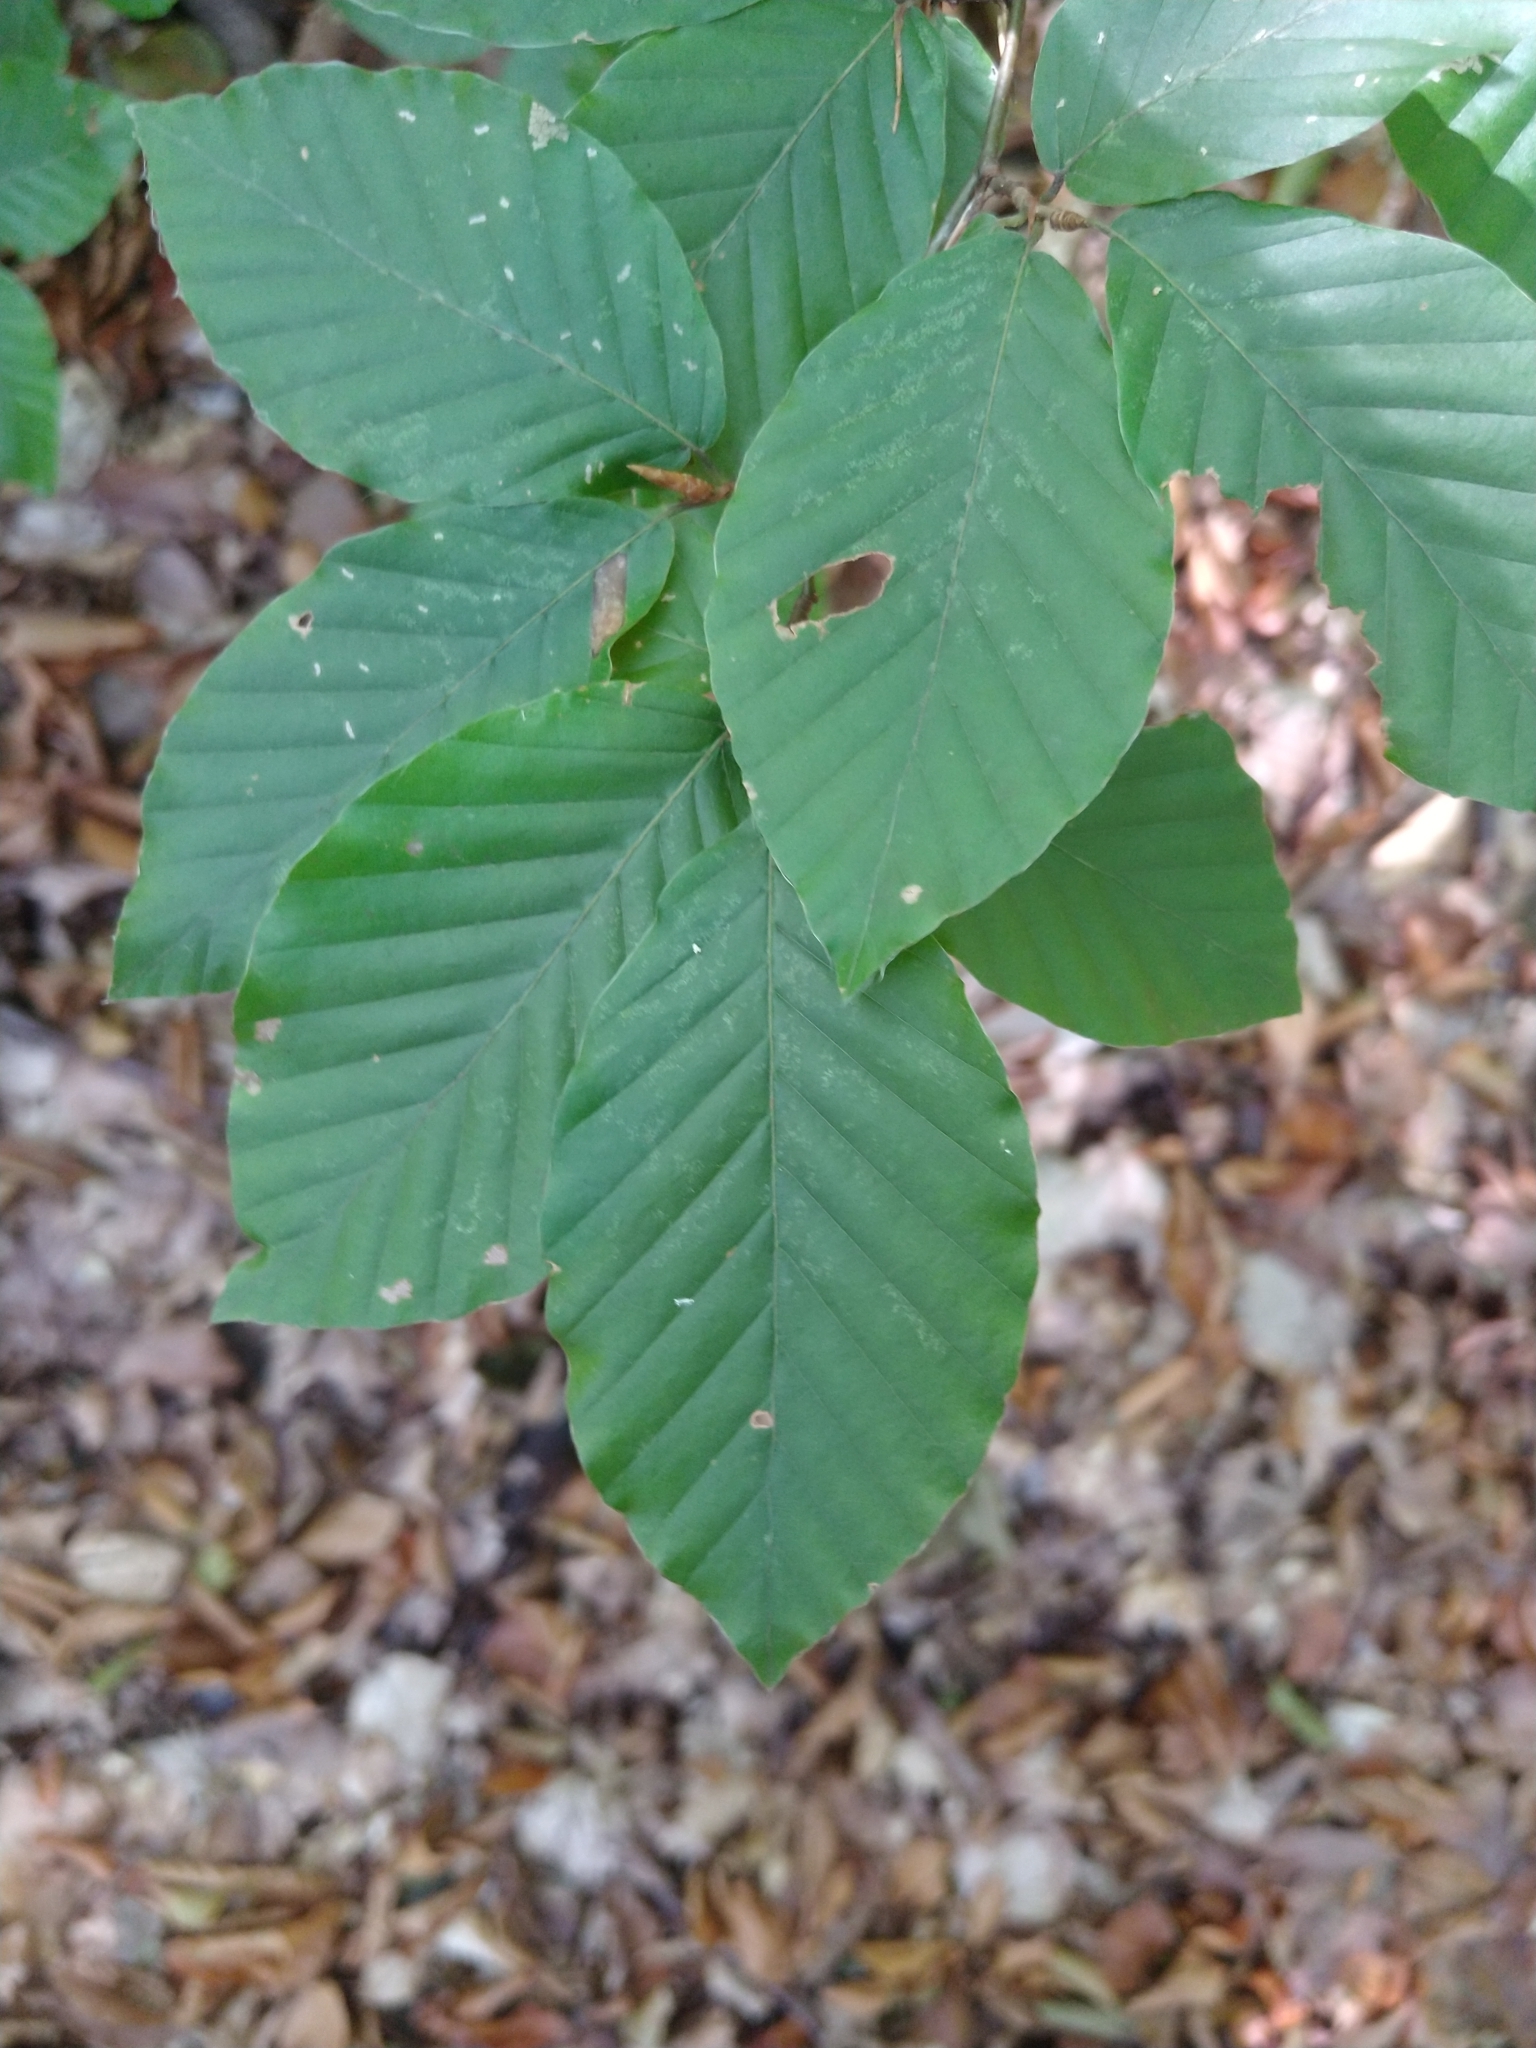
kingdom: Plantae
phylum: Tracheophyta
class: Magnoliopsida
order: Fagales
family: Fagaceae
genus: Fagus
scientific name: Fagus sylvatica
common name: Beech
